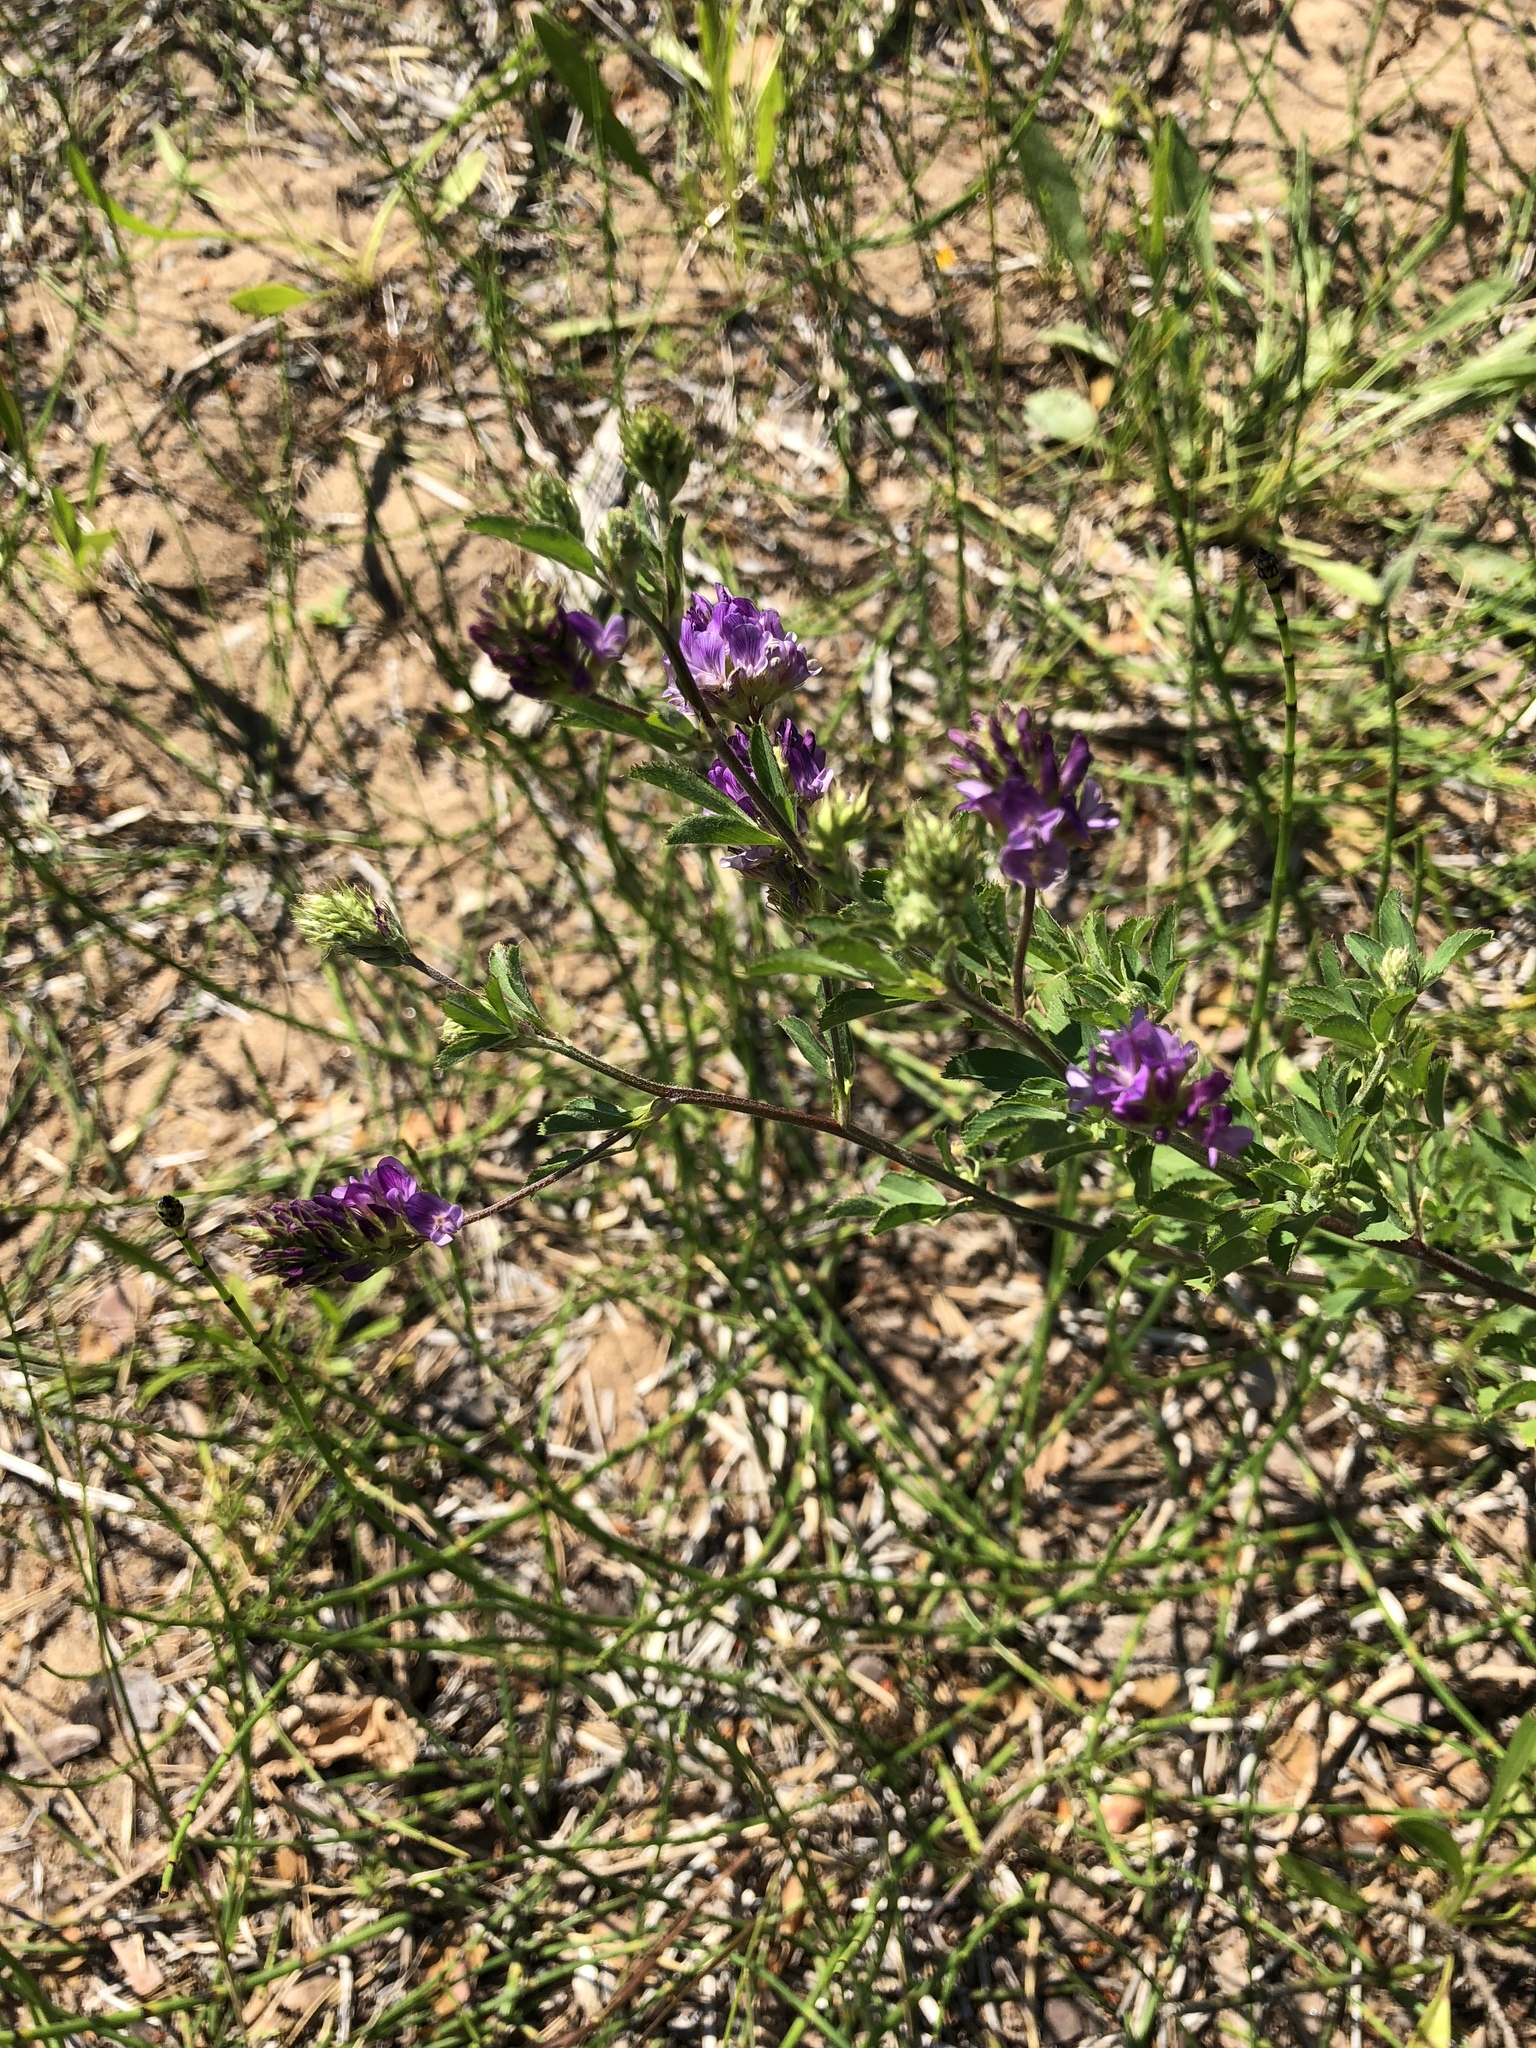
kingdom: Plantae
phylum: Tracheophyta
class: Magnoliopsida
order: Fabales
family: Fabaceae
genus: Medicago
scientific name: Medicago sativa
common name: Alfalfa
